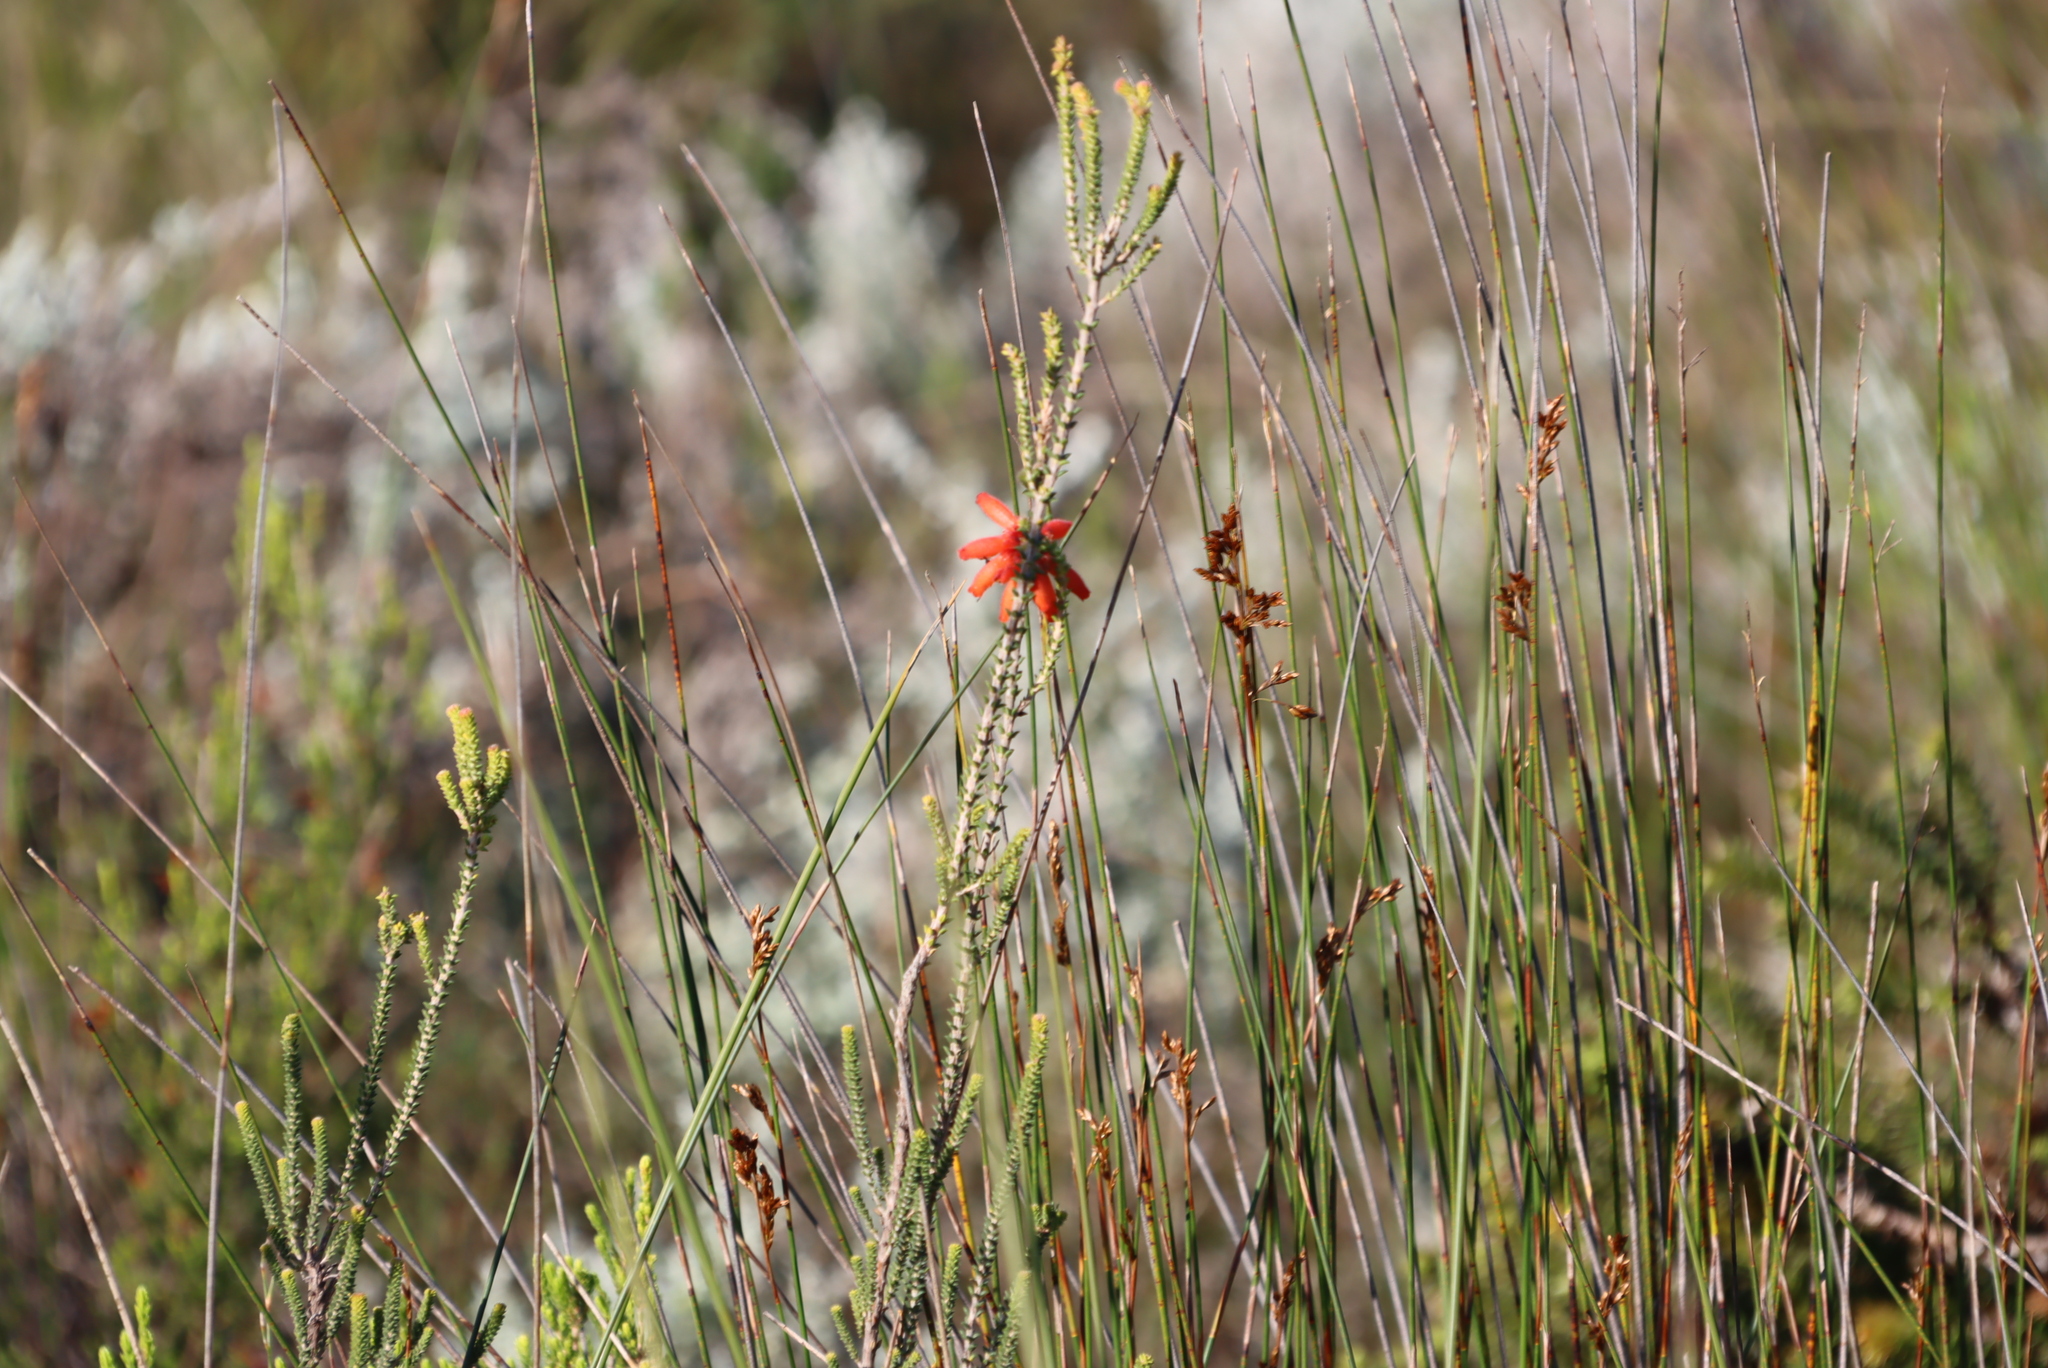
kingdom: Plantae
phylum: Tracheophyta
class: Magnoliopsida
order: Ericales
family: Ericaceae
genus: Erica
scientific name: Erica cerinthoides
